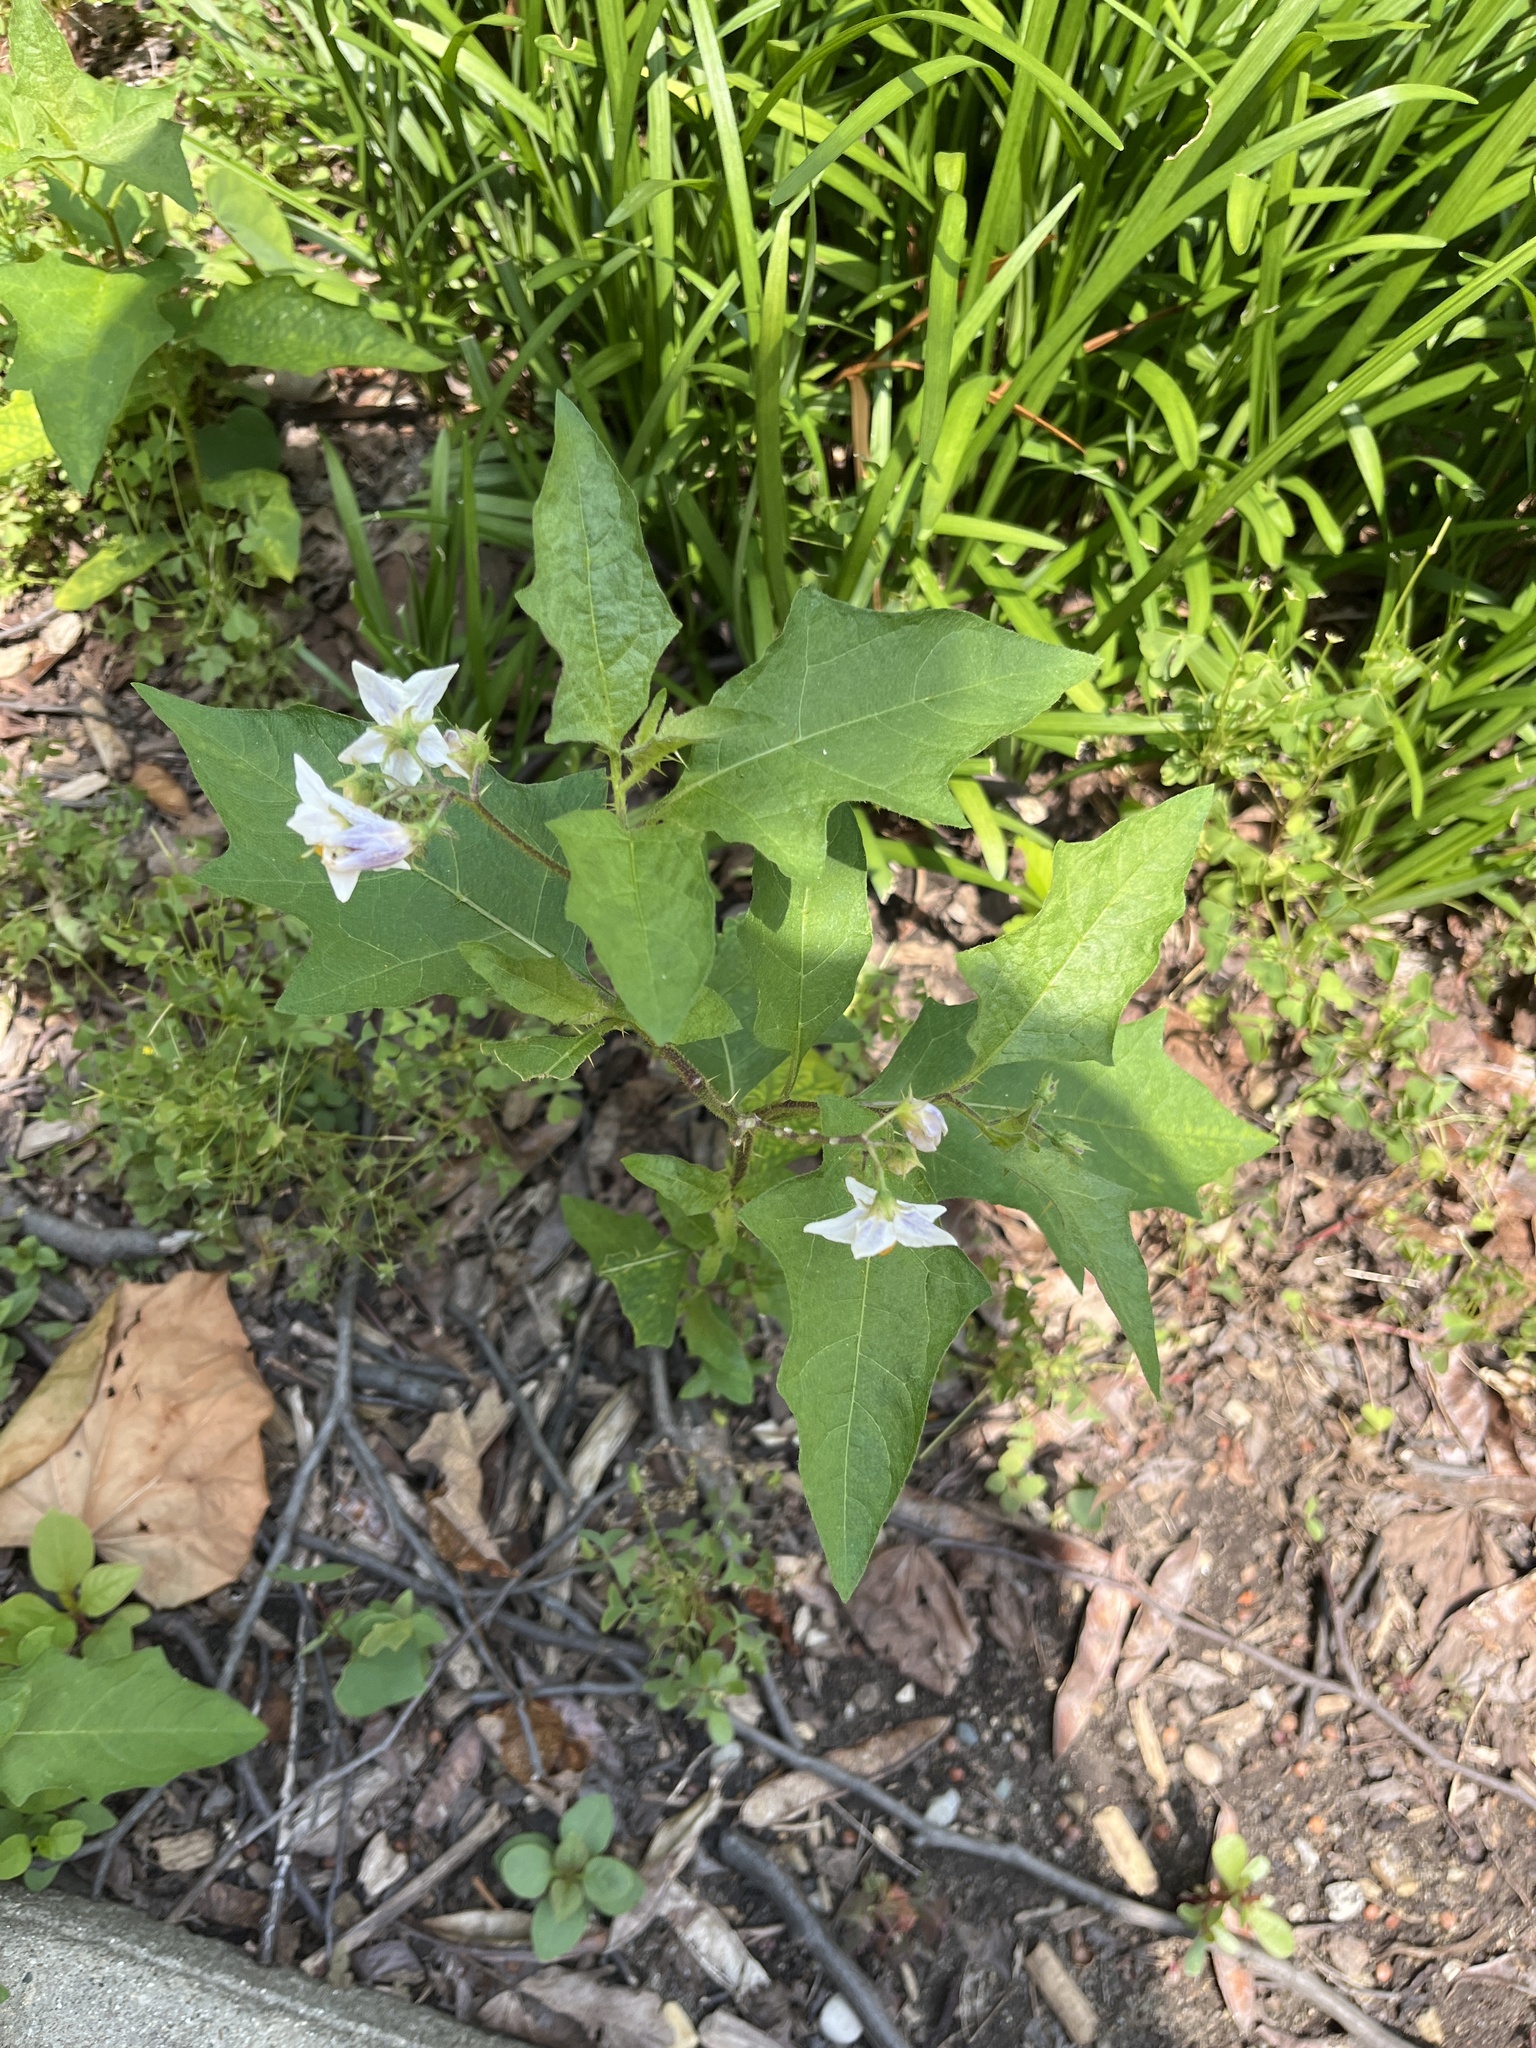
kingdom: Plantae
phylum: Tracheophyta
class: Magnoliopsida
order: Solanales
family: Solanaceae
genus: Solanum
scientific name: Solanum carolinense
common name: Horse-nettle
